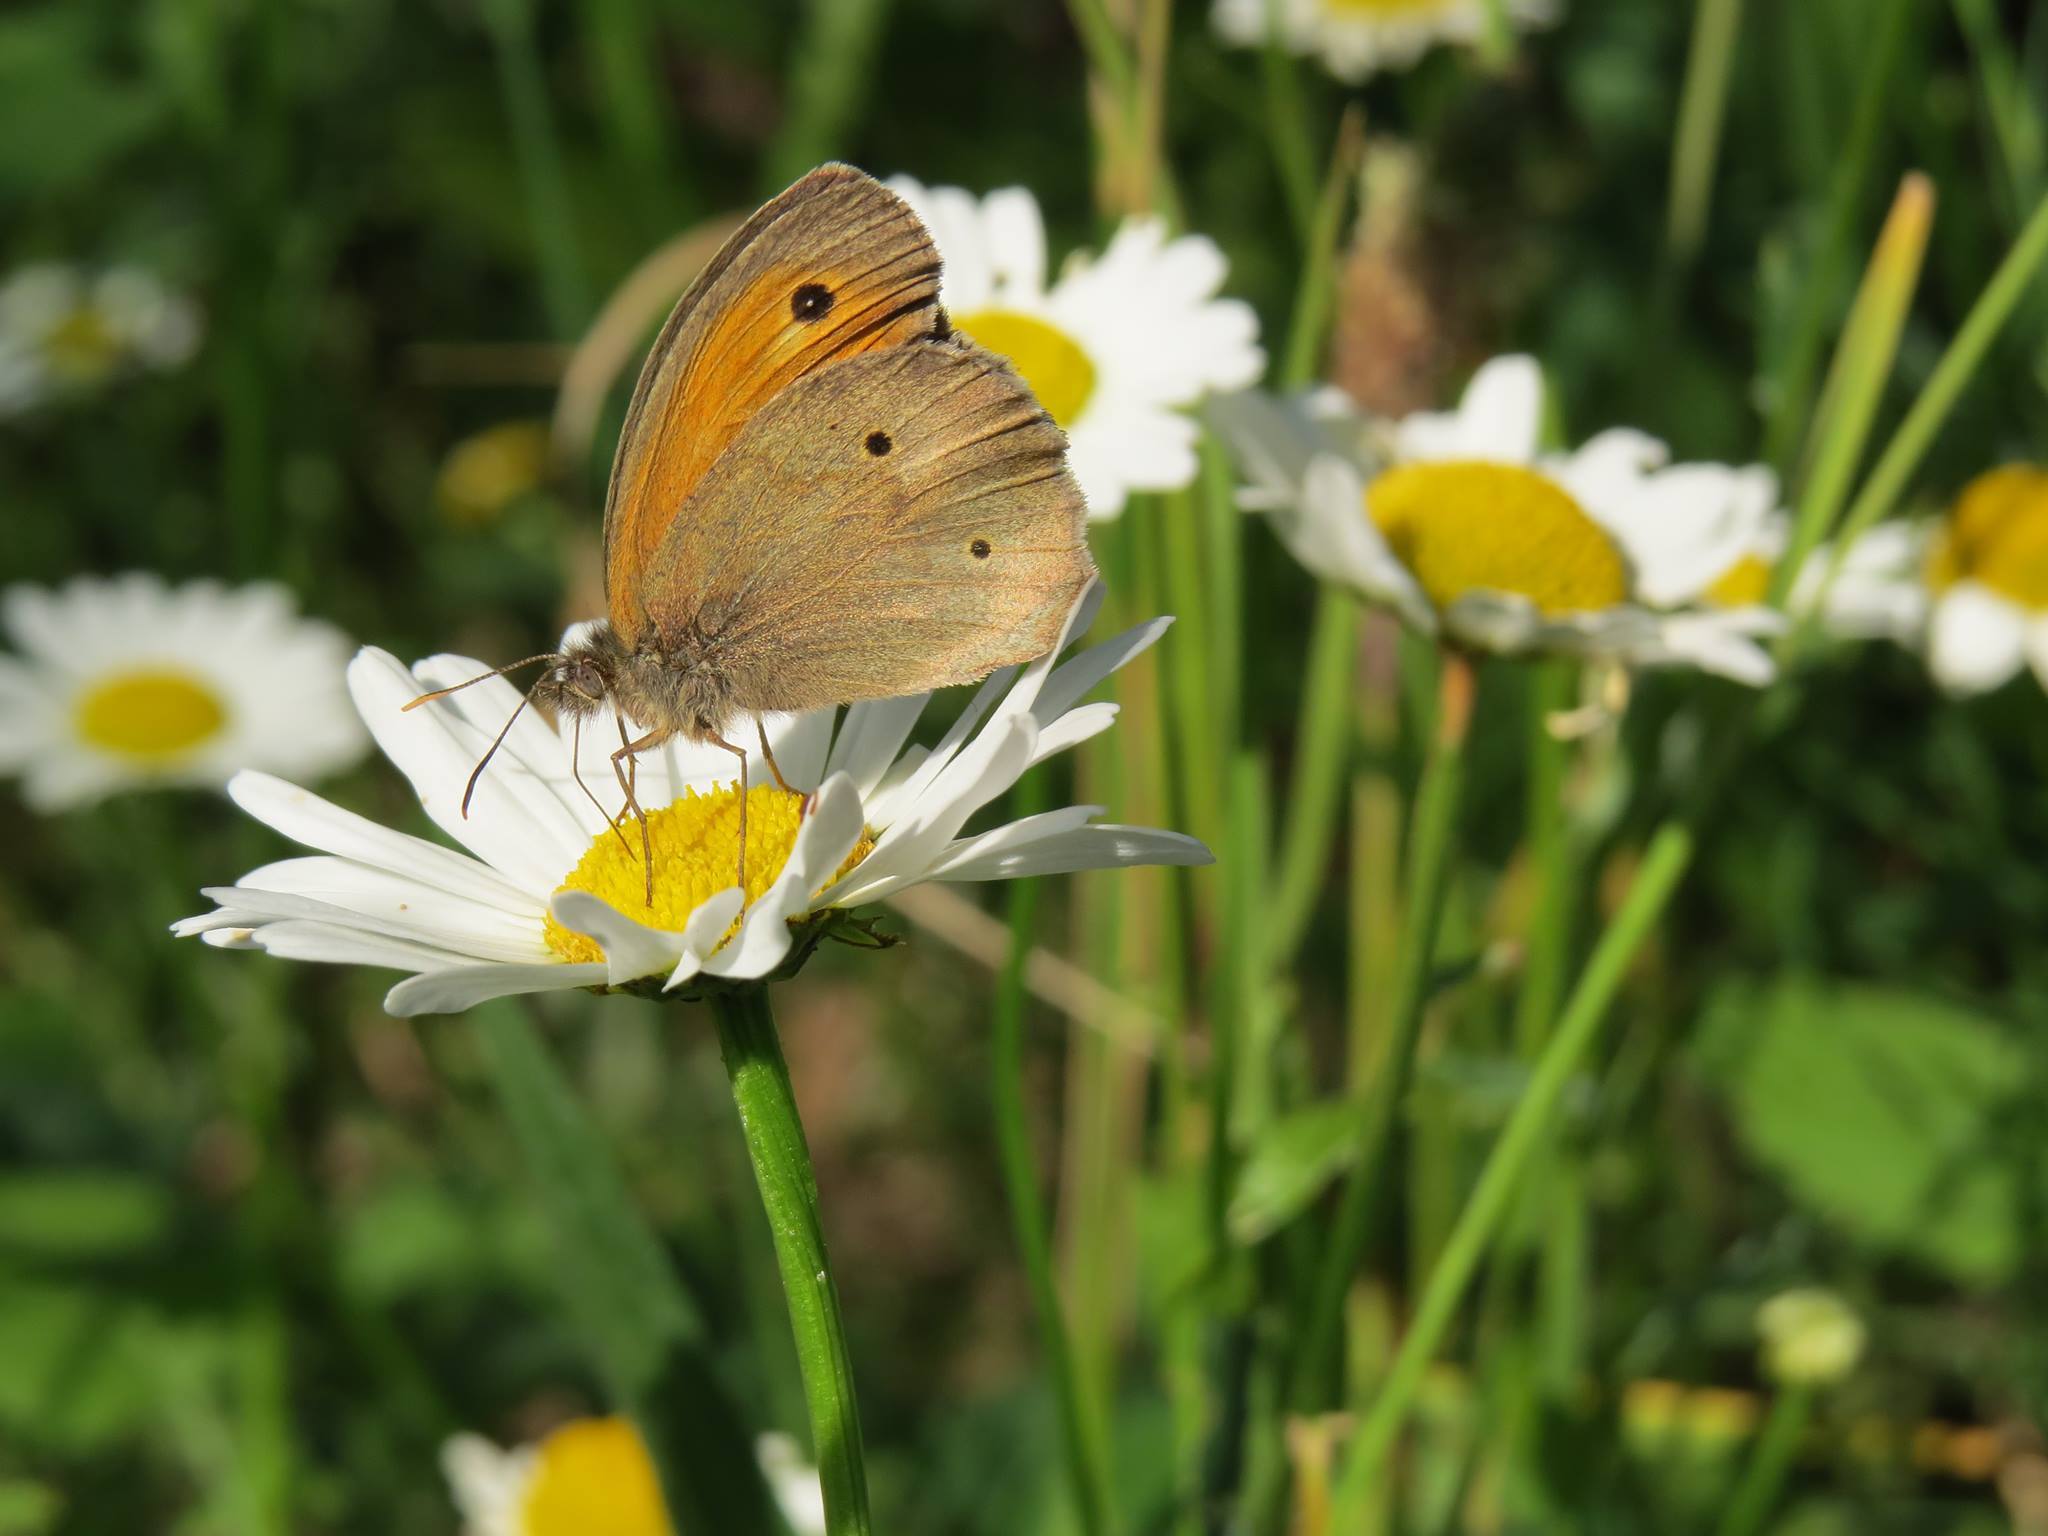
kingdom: Animalia
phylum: Arthropoda
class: Insecta
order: Lepidoptera
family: Nymphalidae
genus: Maniola
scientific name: Maniola jurtina
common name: Meadow brown
